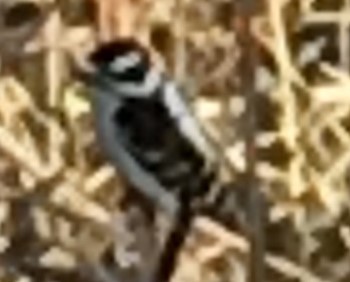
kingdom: Animalia
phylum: Chordata
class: Aves
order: Piciformes
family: Picidae
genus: Dryobates
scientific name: Dryobates pubescens
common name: Downy woodpecker
